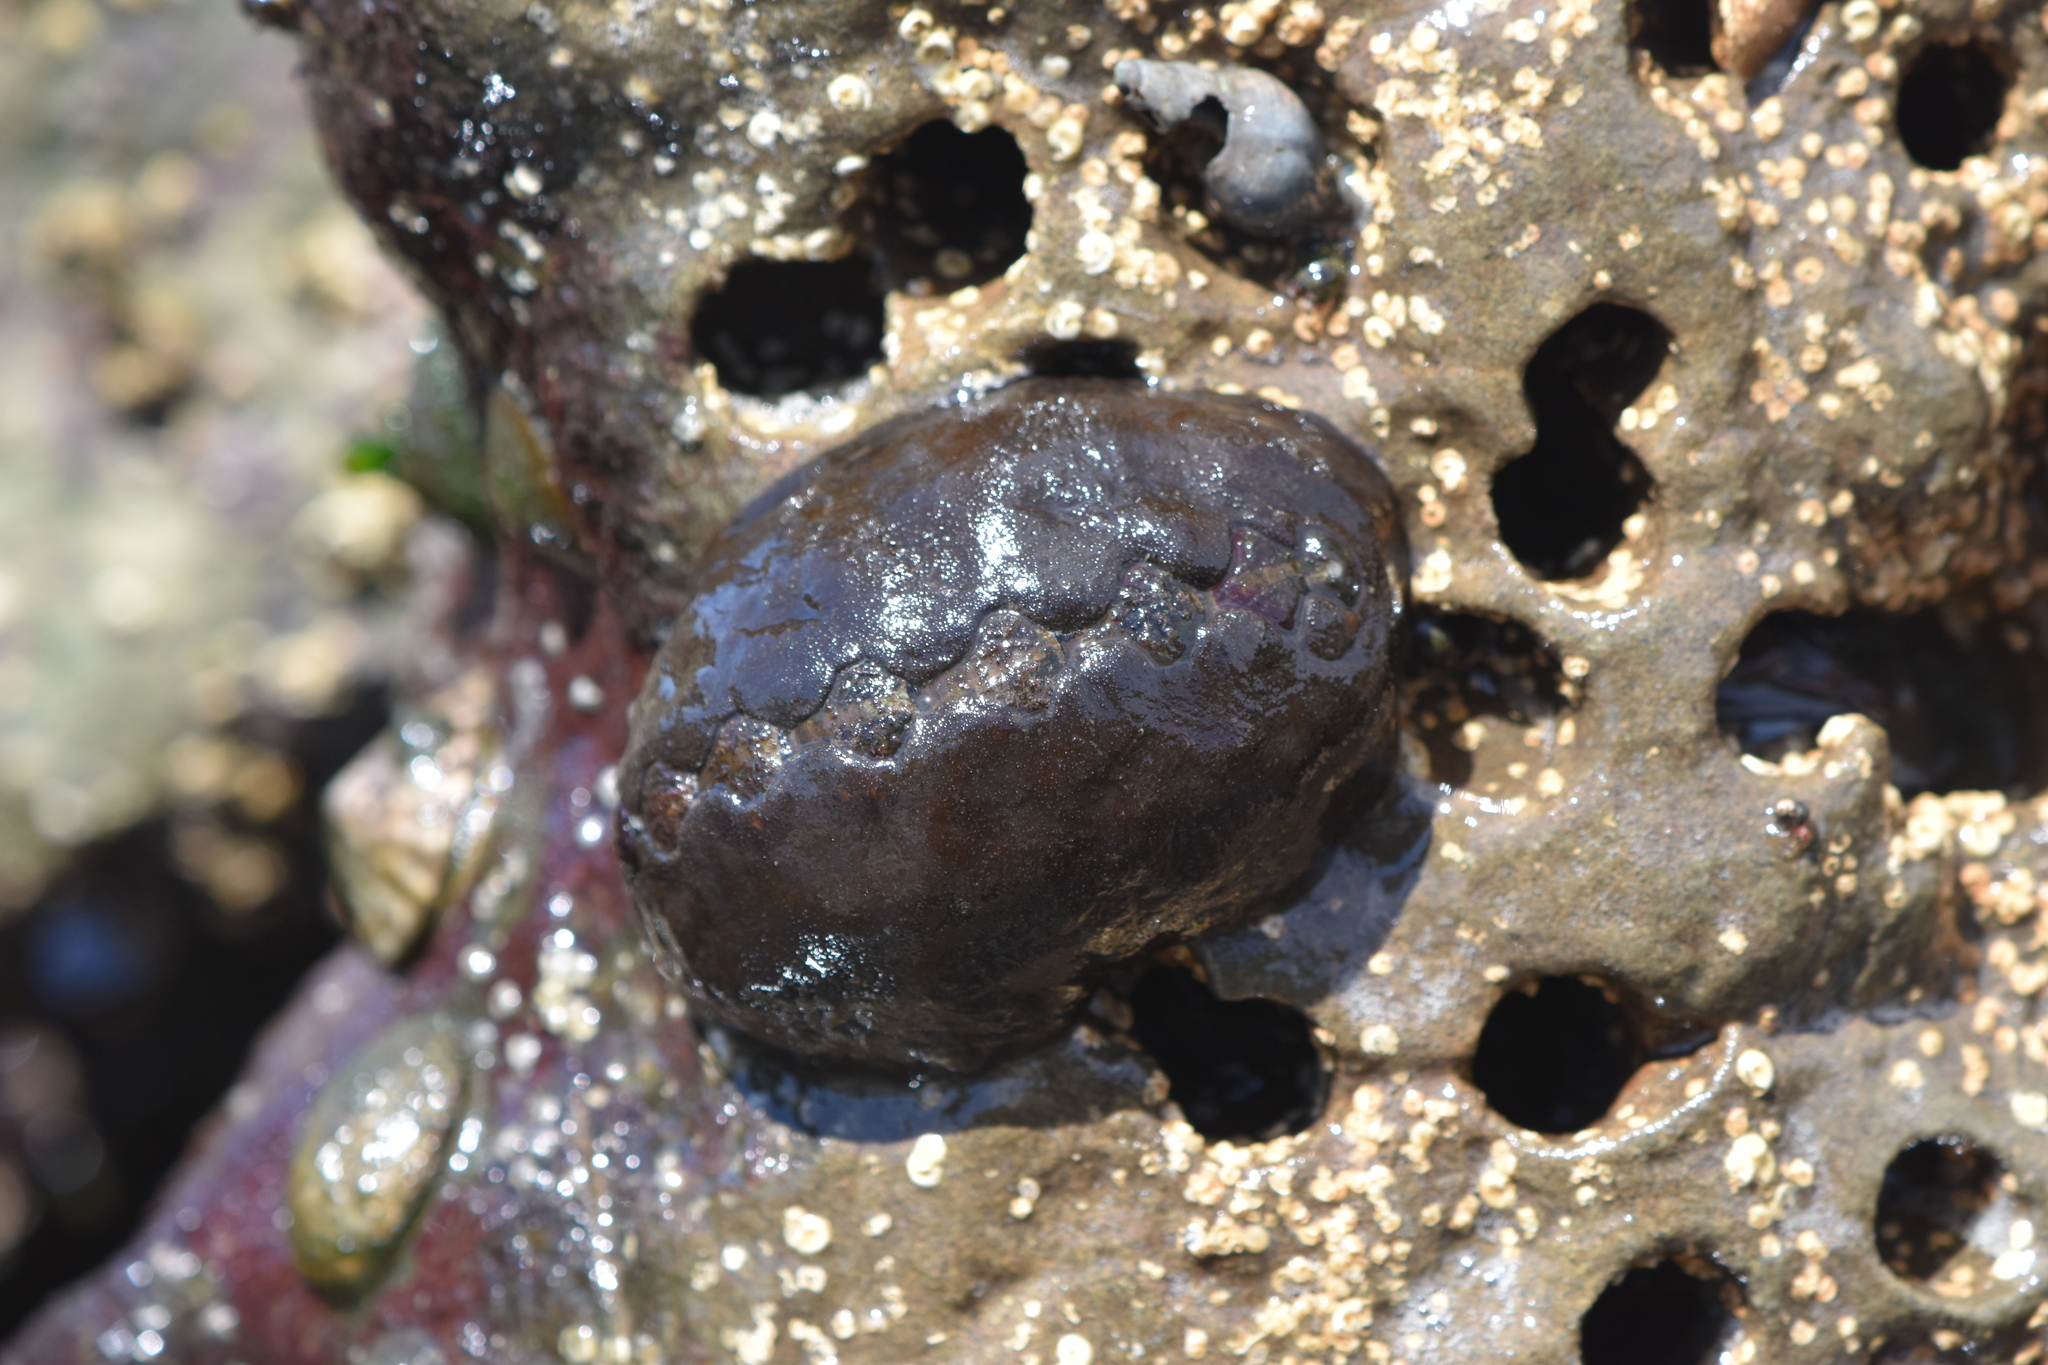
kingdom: Animalia
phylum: Mollusca
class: Polyplacophora
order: Chitonida
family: Mopaliidae
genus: Katharina
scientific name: Katharina tunicata
